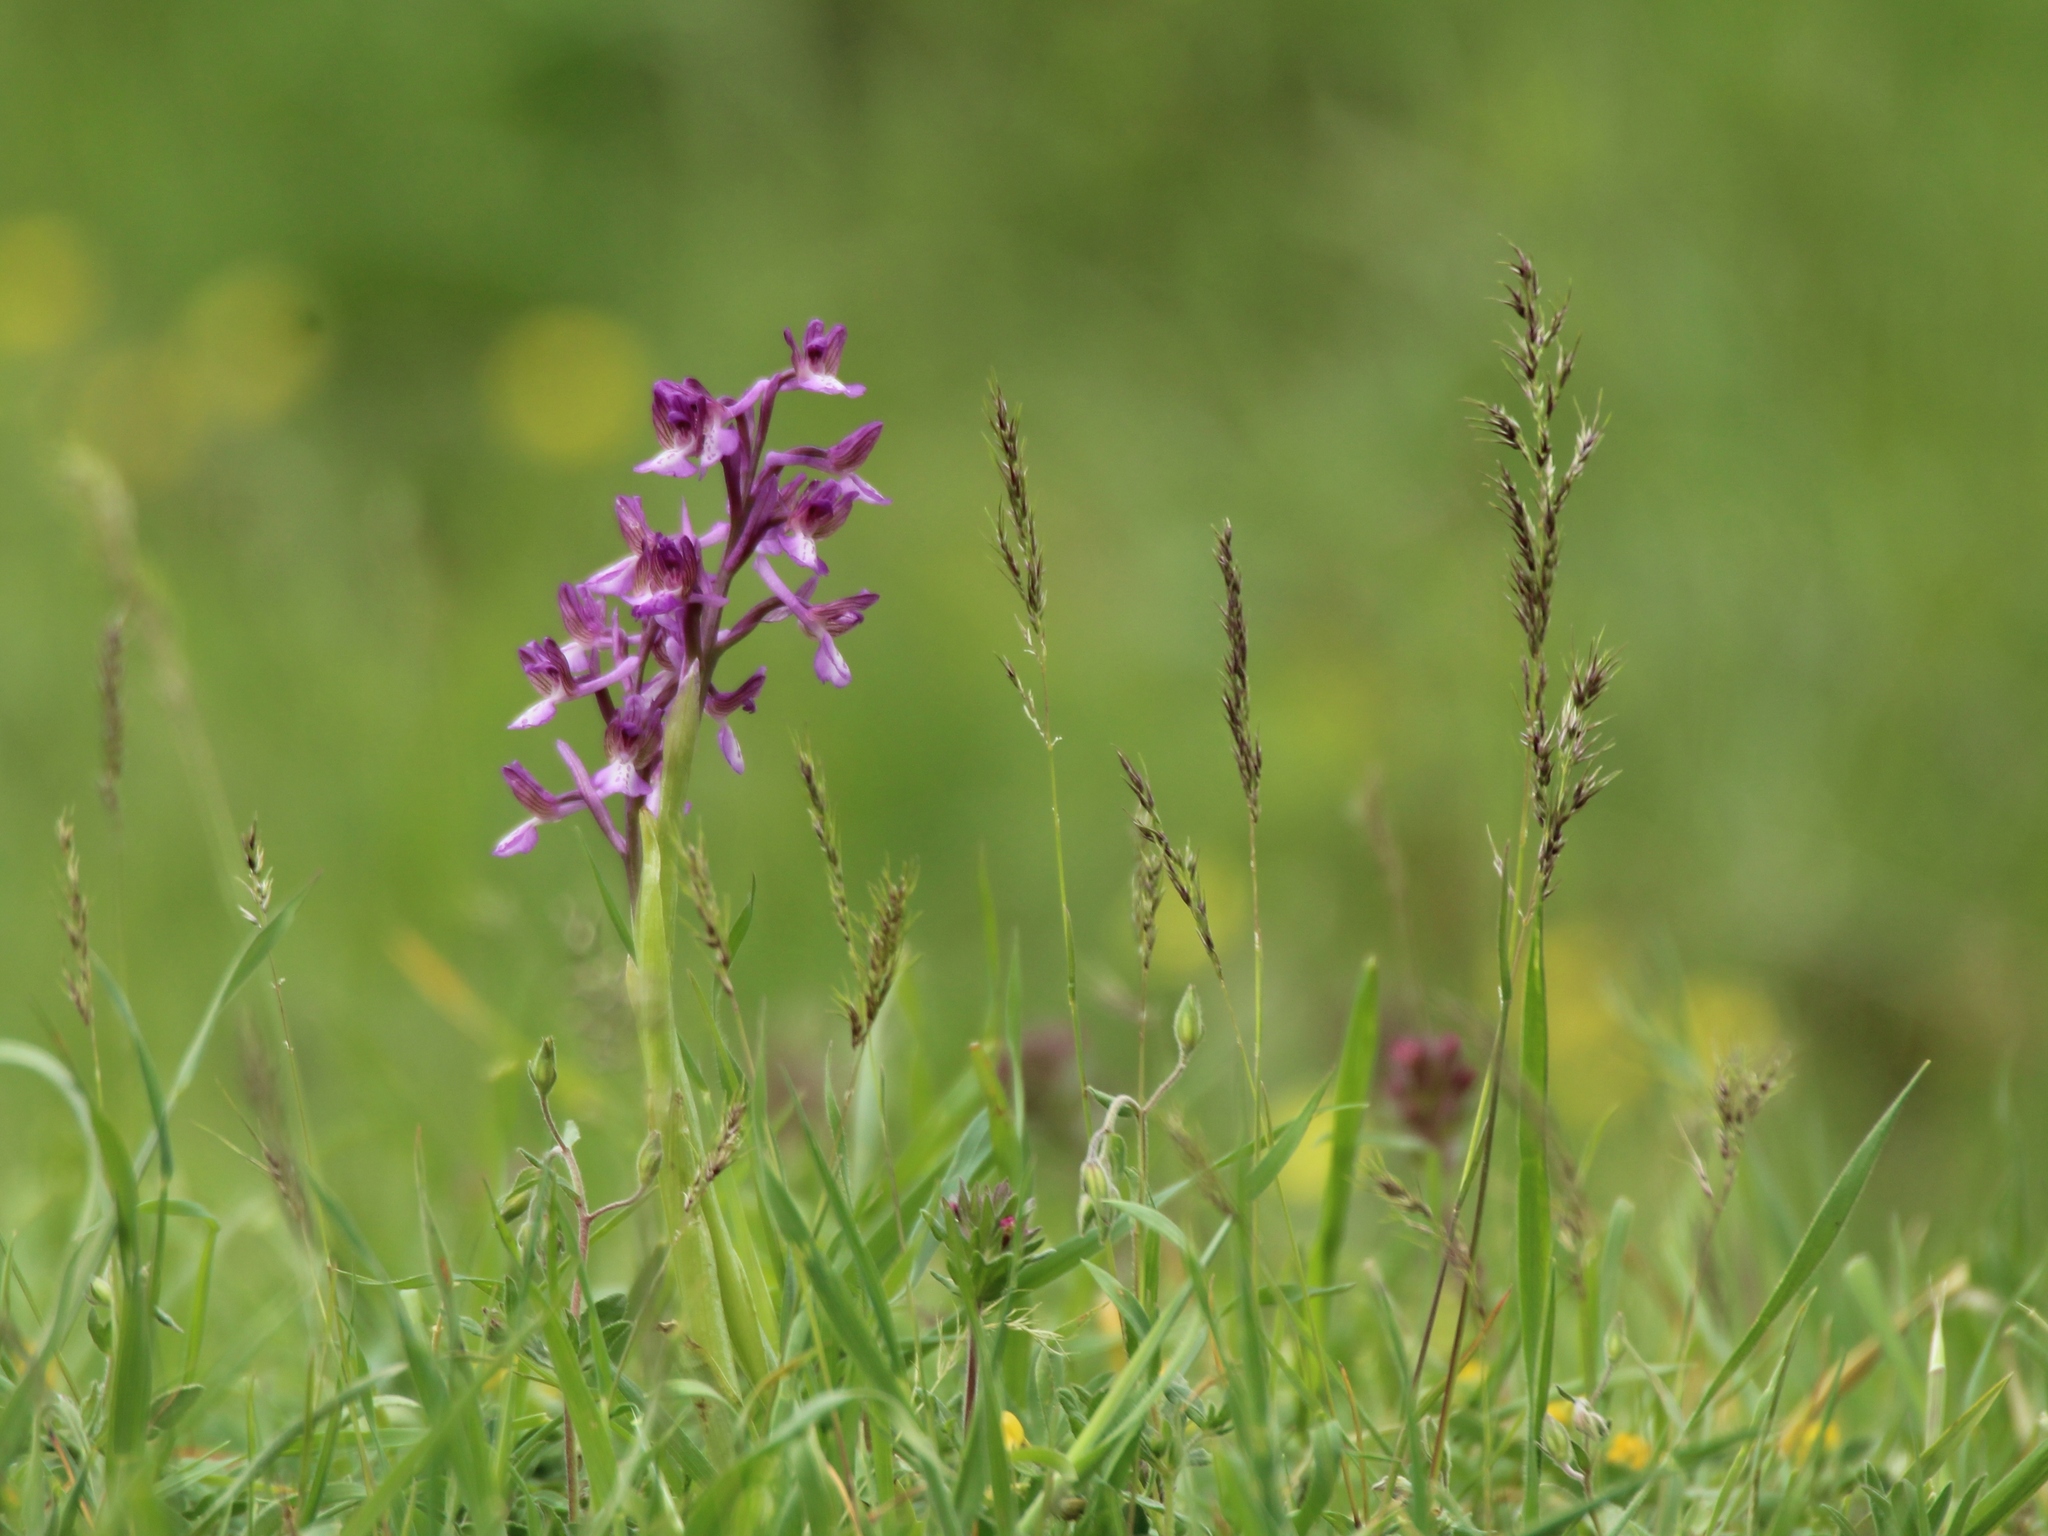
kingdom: Plantae
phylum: Tracheophyta
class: Liliopsida
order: Asparagales
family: Orchidaceae
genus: Anacamptis
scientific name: Anacamptis morio
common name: Green-winged orchid
